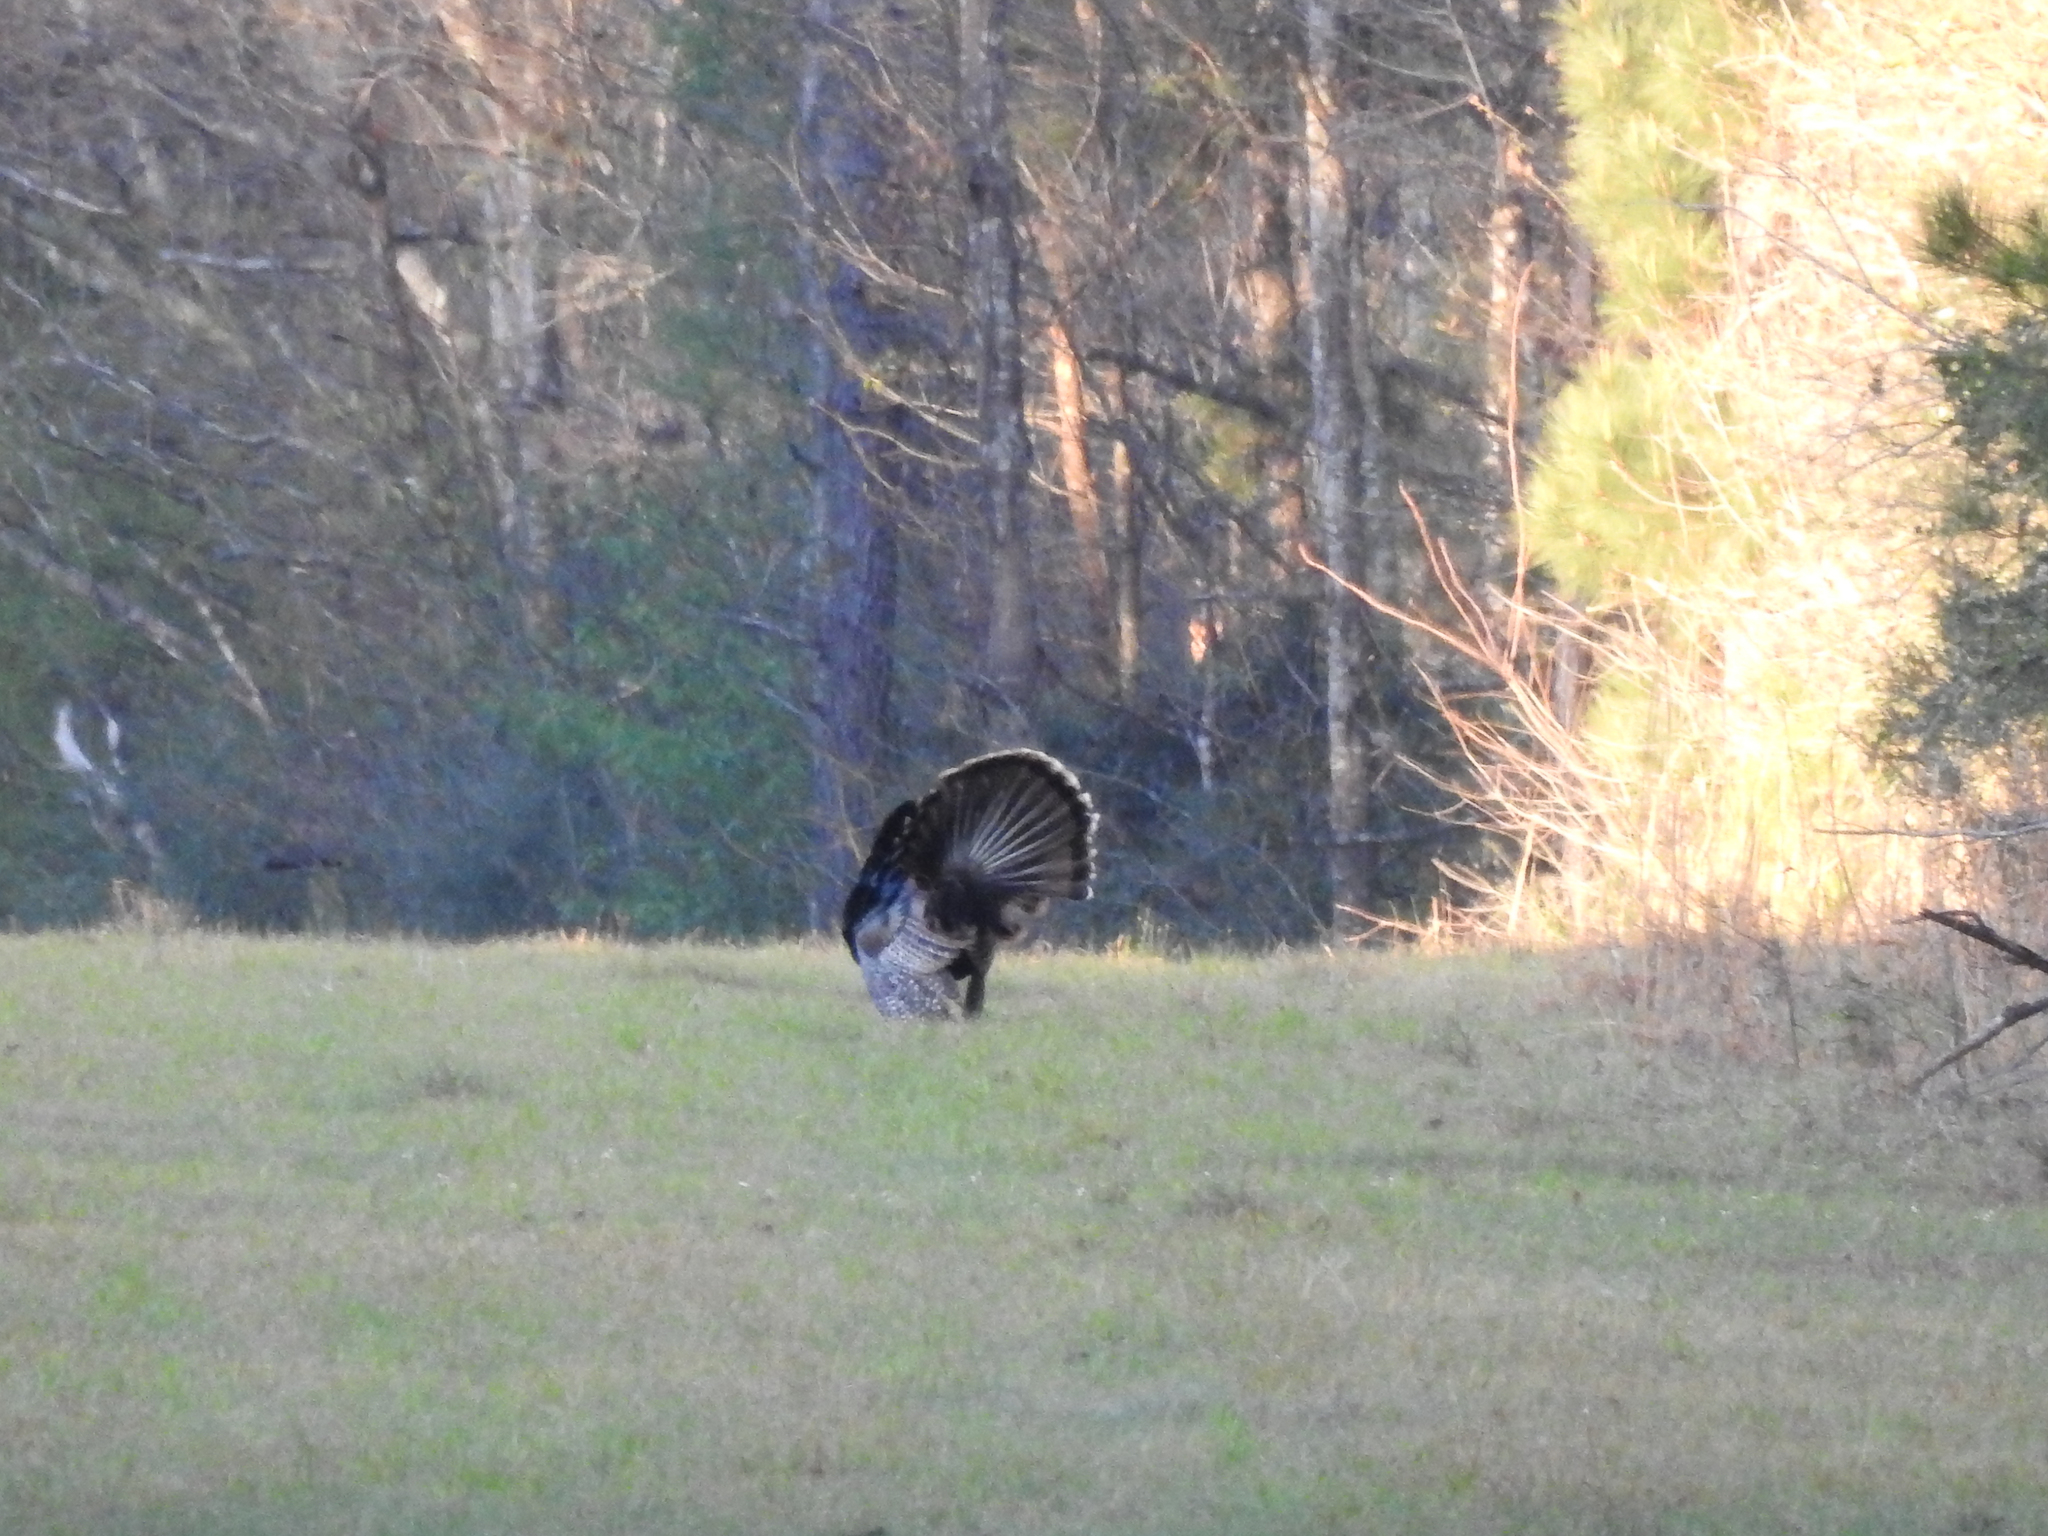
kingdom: Animalia
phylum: Chordata
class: Aves
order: Galliformes
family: Phasianidae
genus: Meleagris
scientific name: Meleagris gallopavo
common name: Wild turkey
